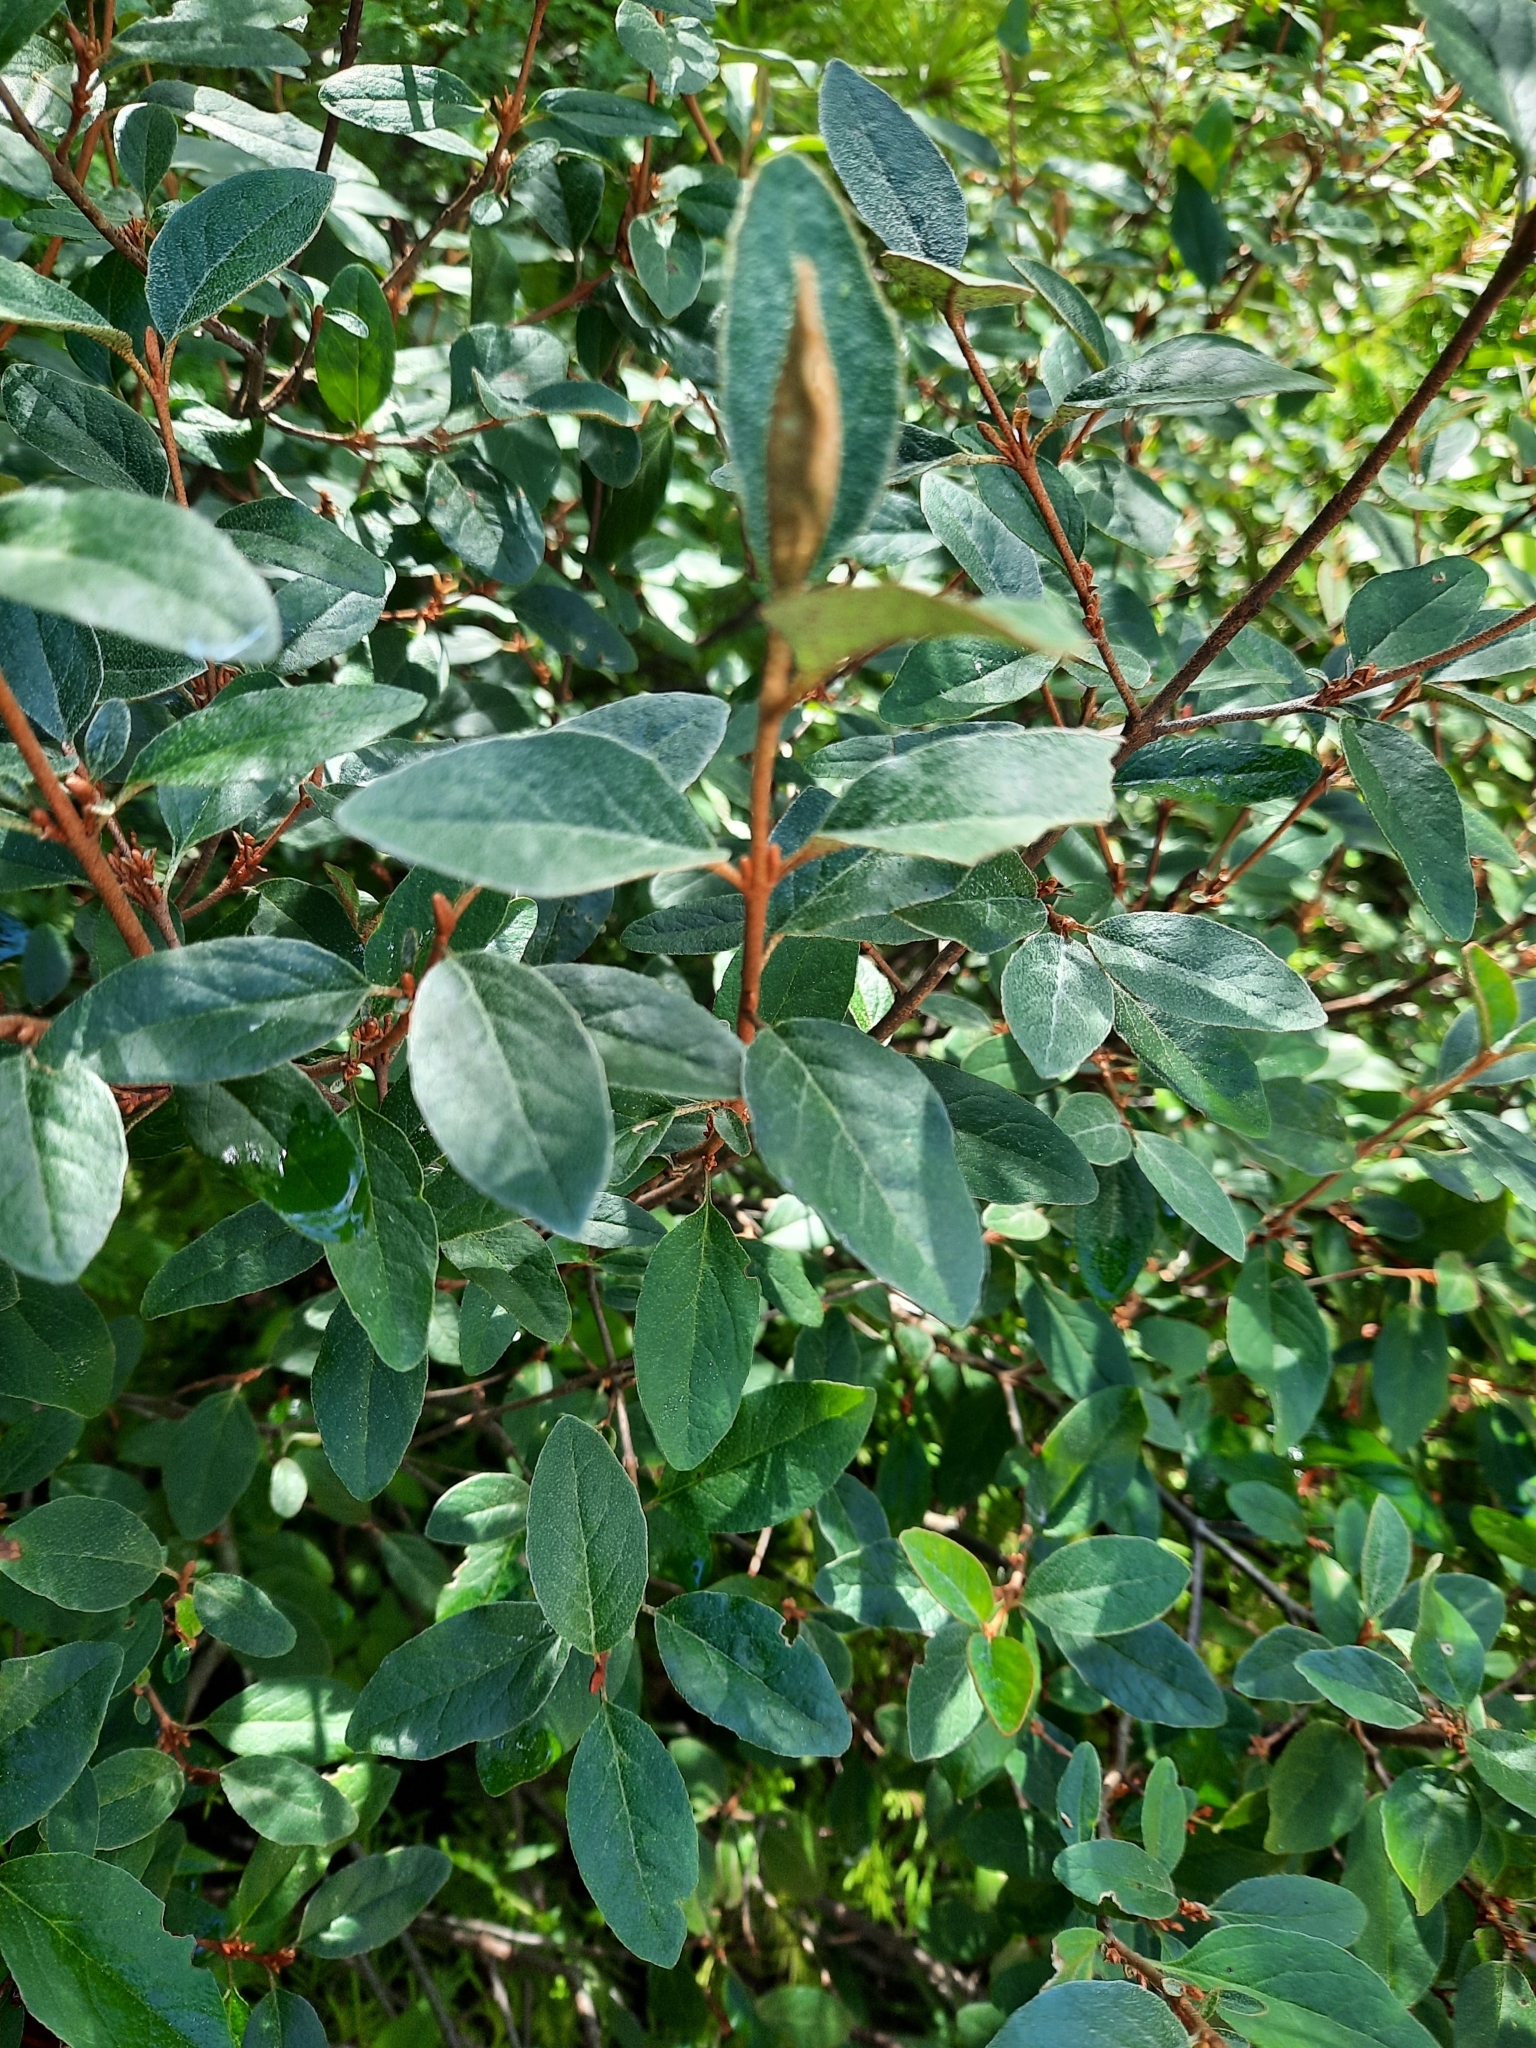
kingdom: Plantae
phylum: Tracheophyta
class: Magnoliopsida
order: Rosales
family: Elaeagnaceae
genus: Shepherdia
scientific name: Shepherdia canadensis
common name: Soapberry
